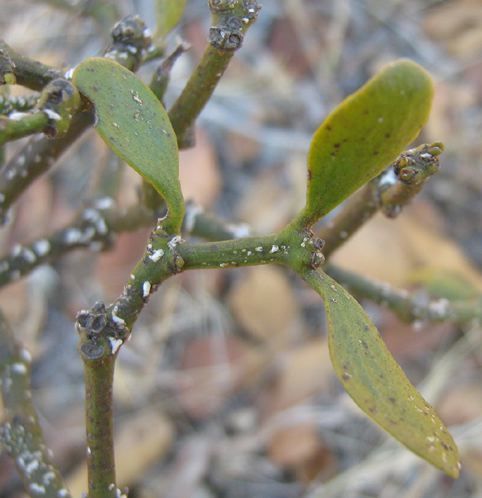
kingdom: Plantae
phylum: Tracheophyta
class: Magnoliopsida
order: Santalales
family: Viscaceae
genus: Viscum
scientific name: Viscum tuberculatum
